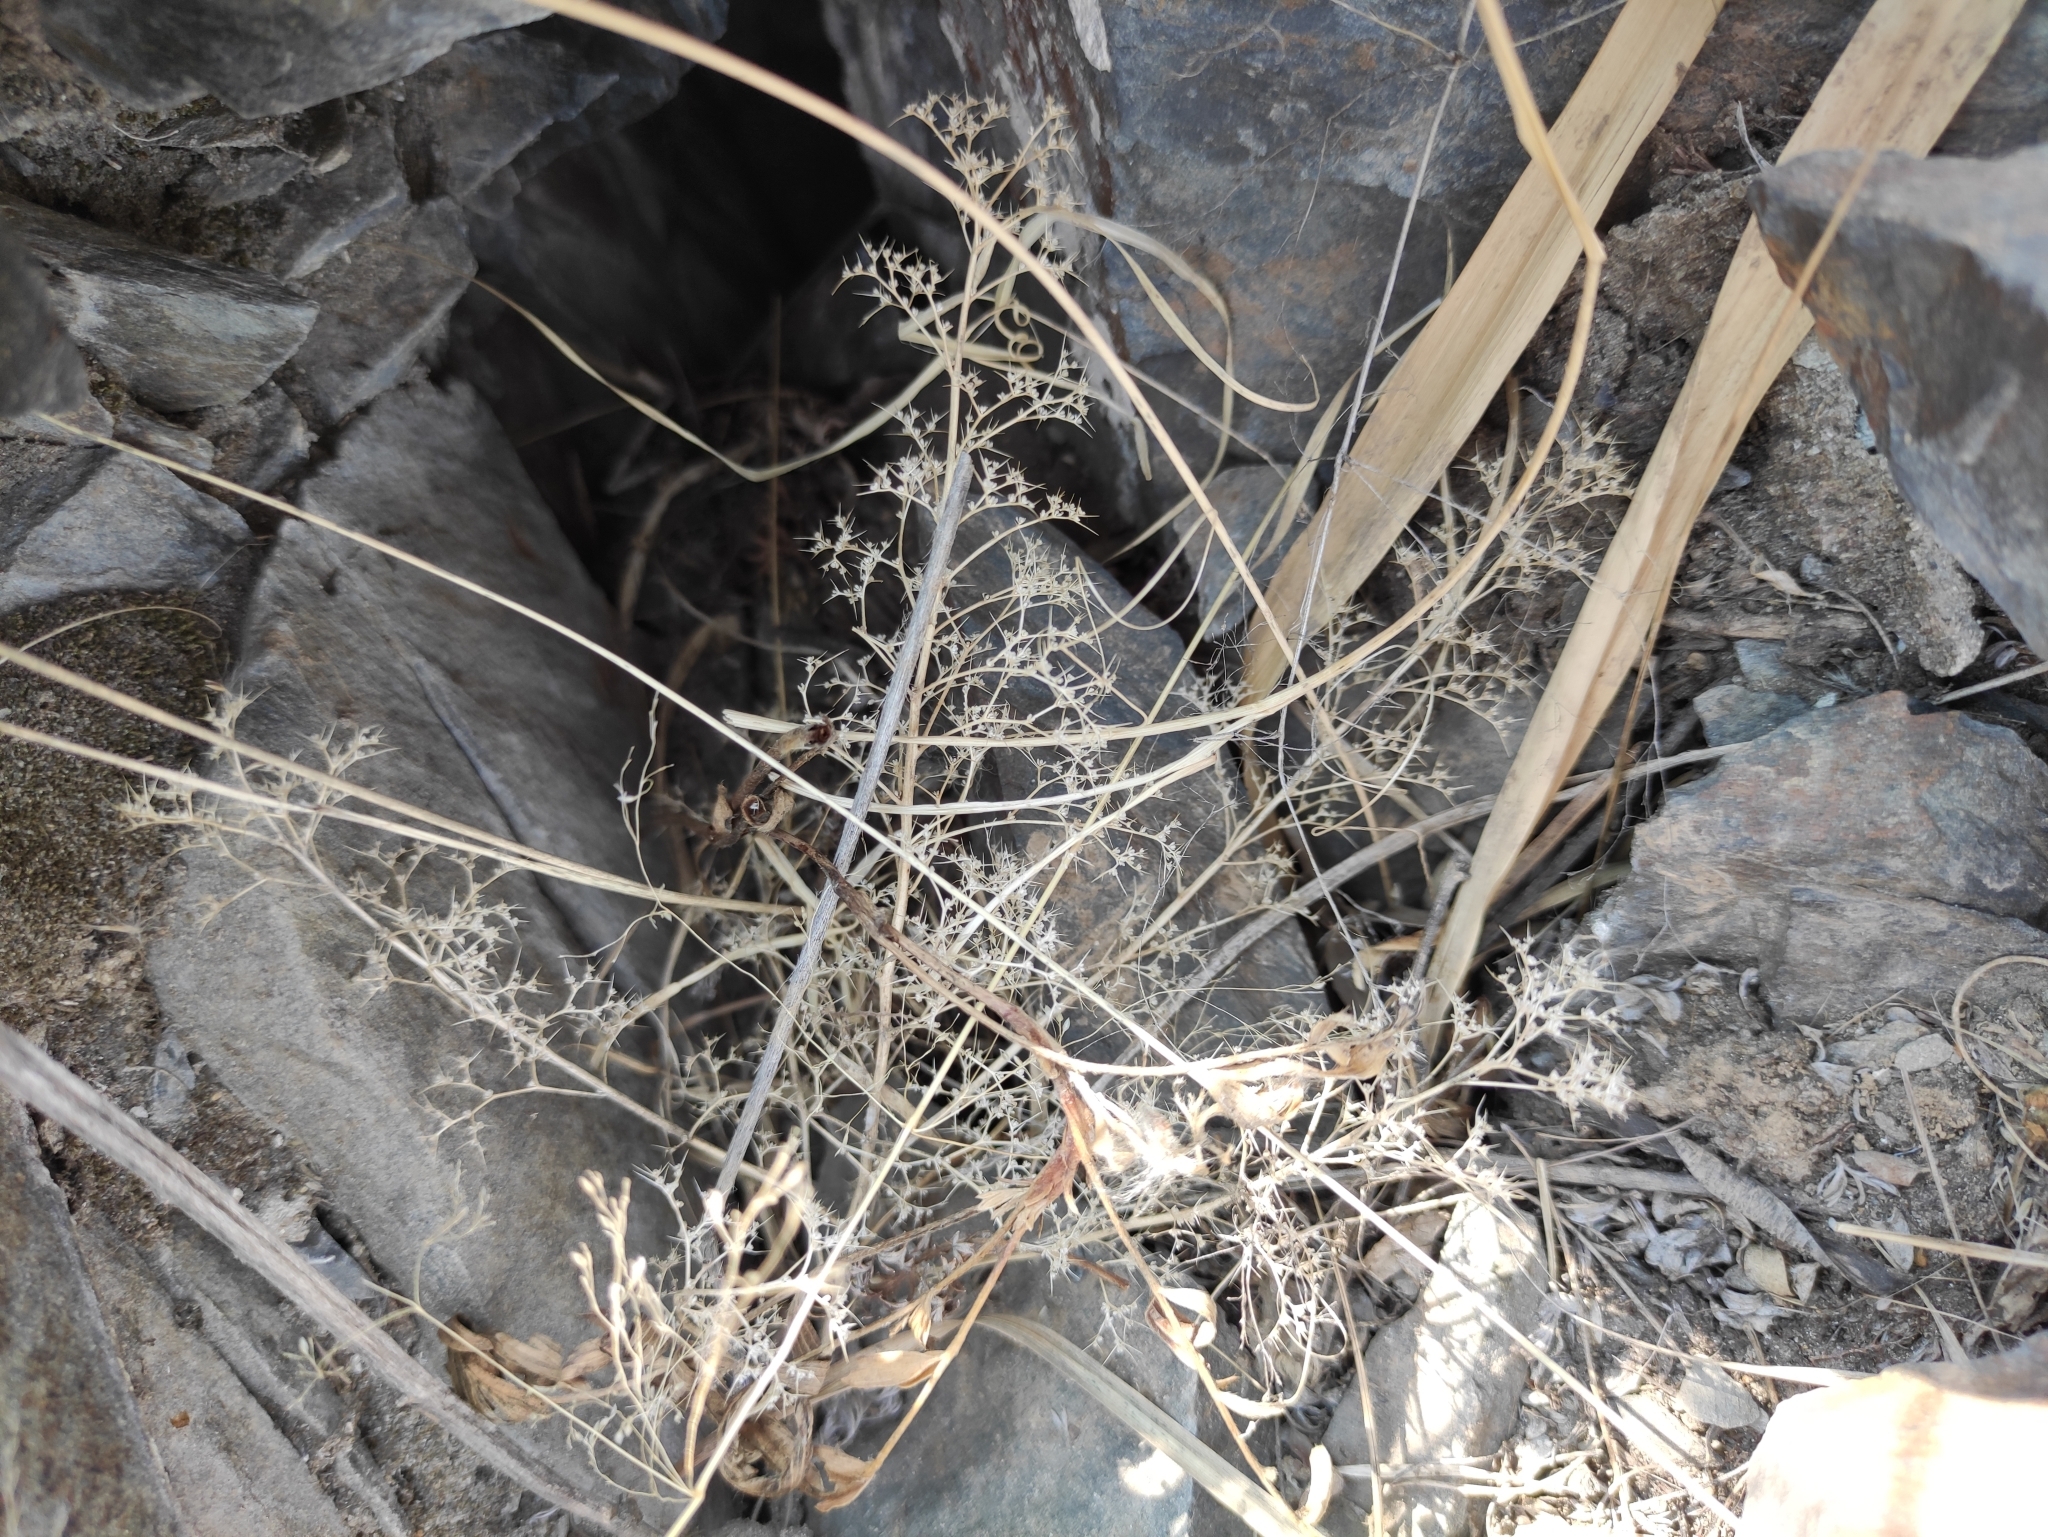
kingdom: Plantae
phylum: Tracheophyta
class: Magnoliopsida
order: Caryophyllales
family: Amaranthaceae
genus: Teloxys
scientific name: Teloxys aristata
